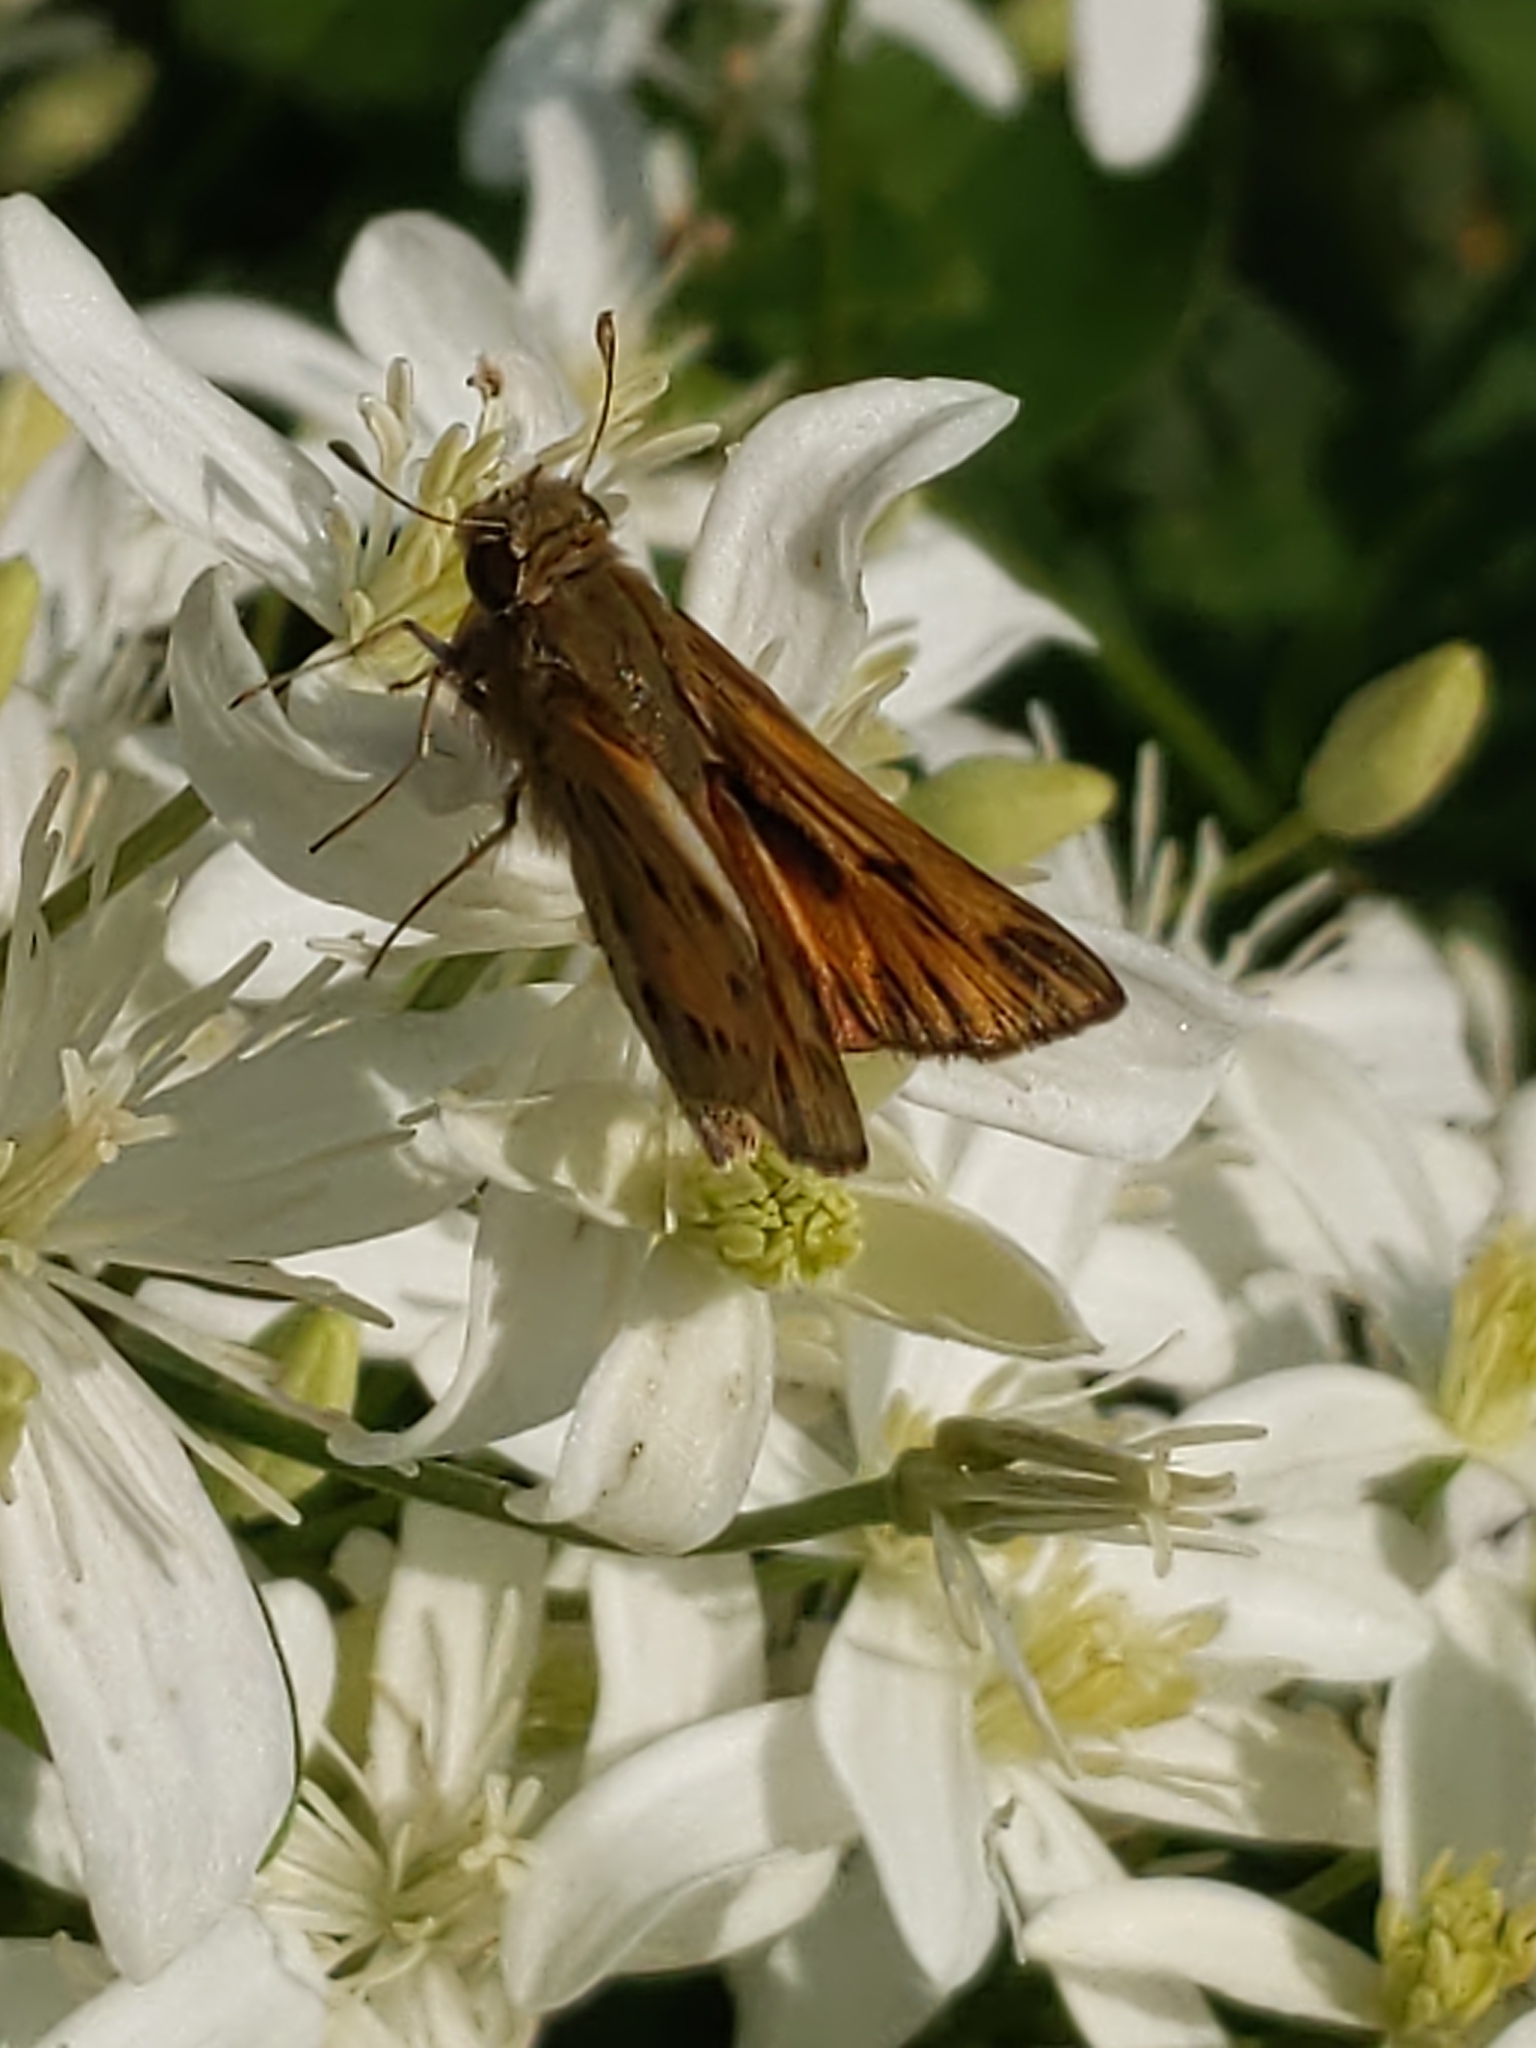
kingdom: Animalia
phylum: Arthropoda
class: Insecta
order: Lepidoptera
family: Hesperiidae
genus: Hylephila
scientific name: Hylephila phyleus
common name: Fiery skipper
